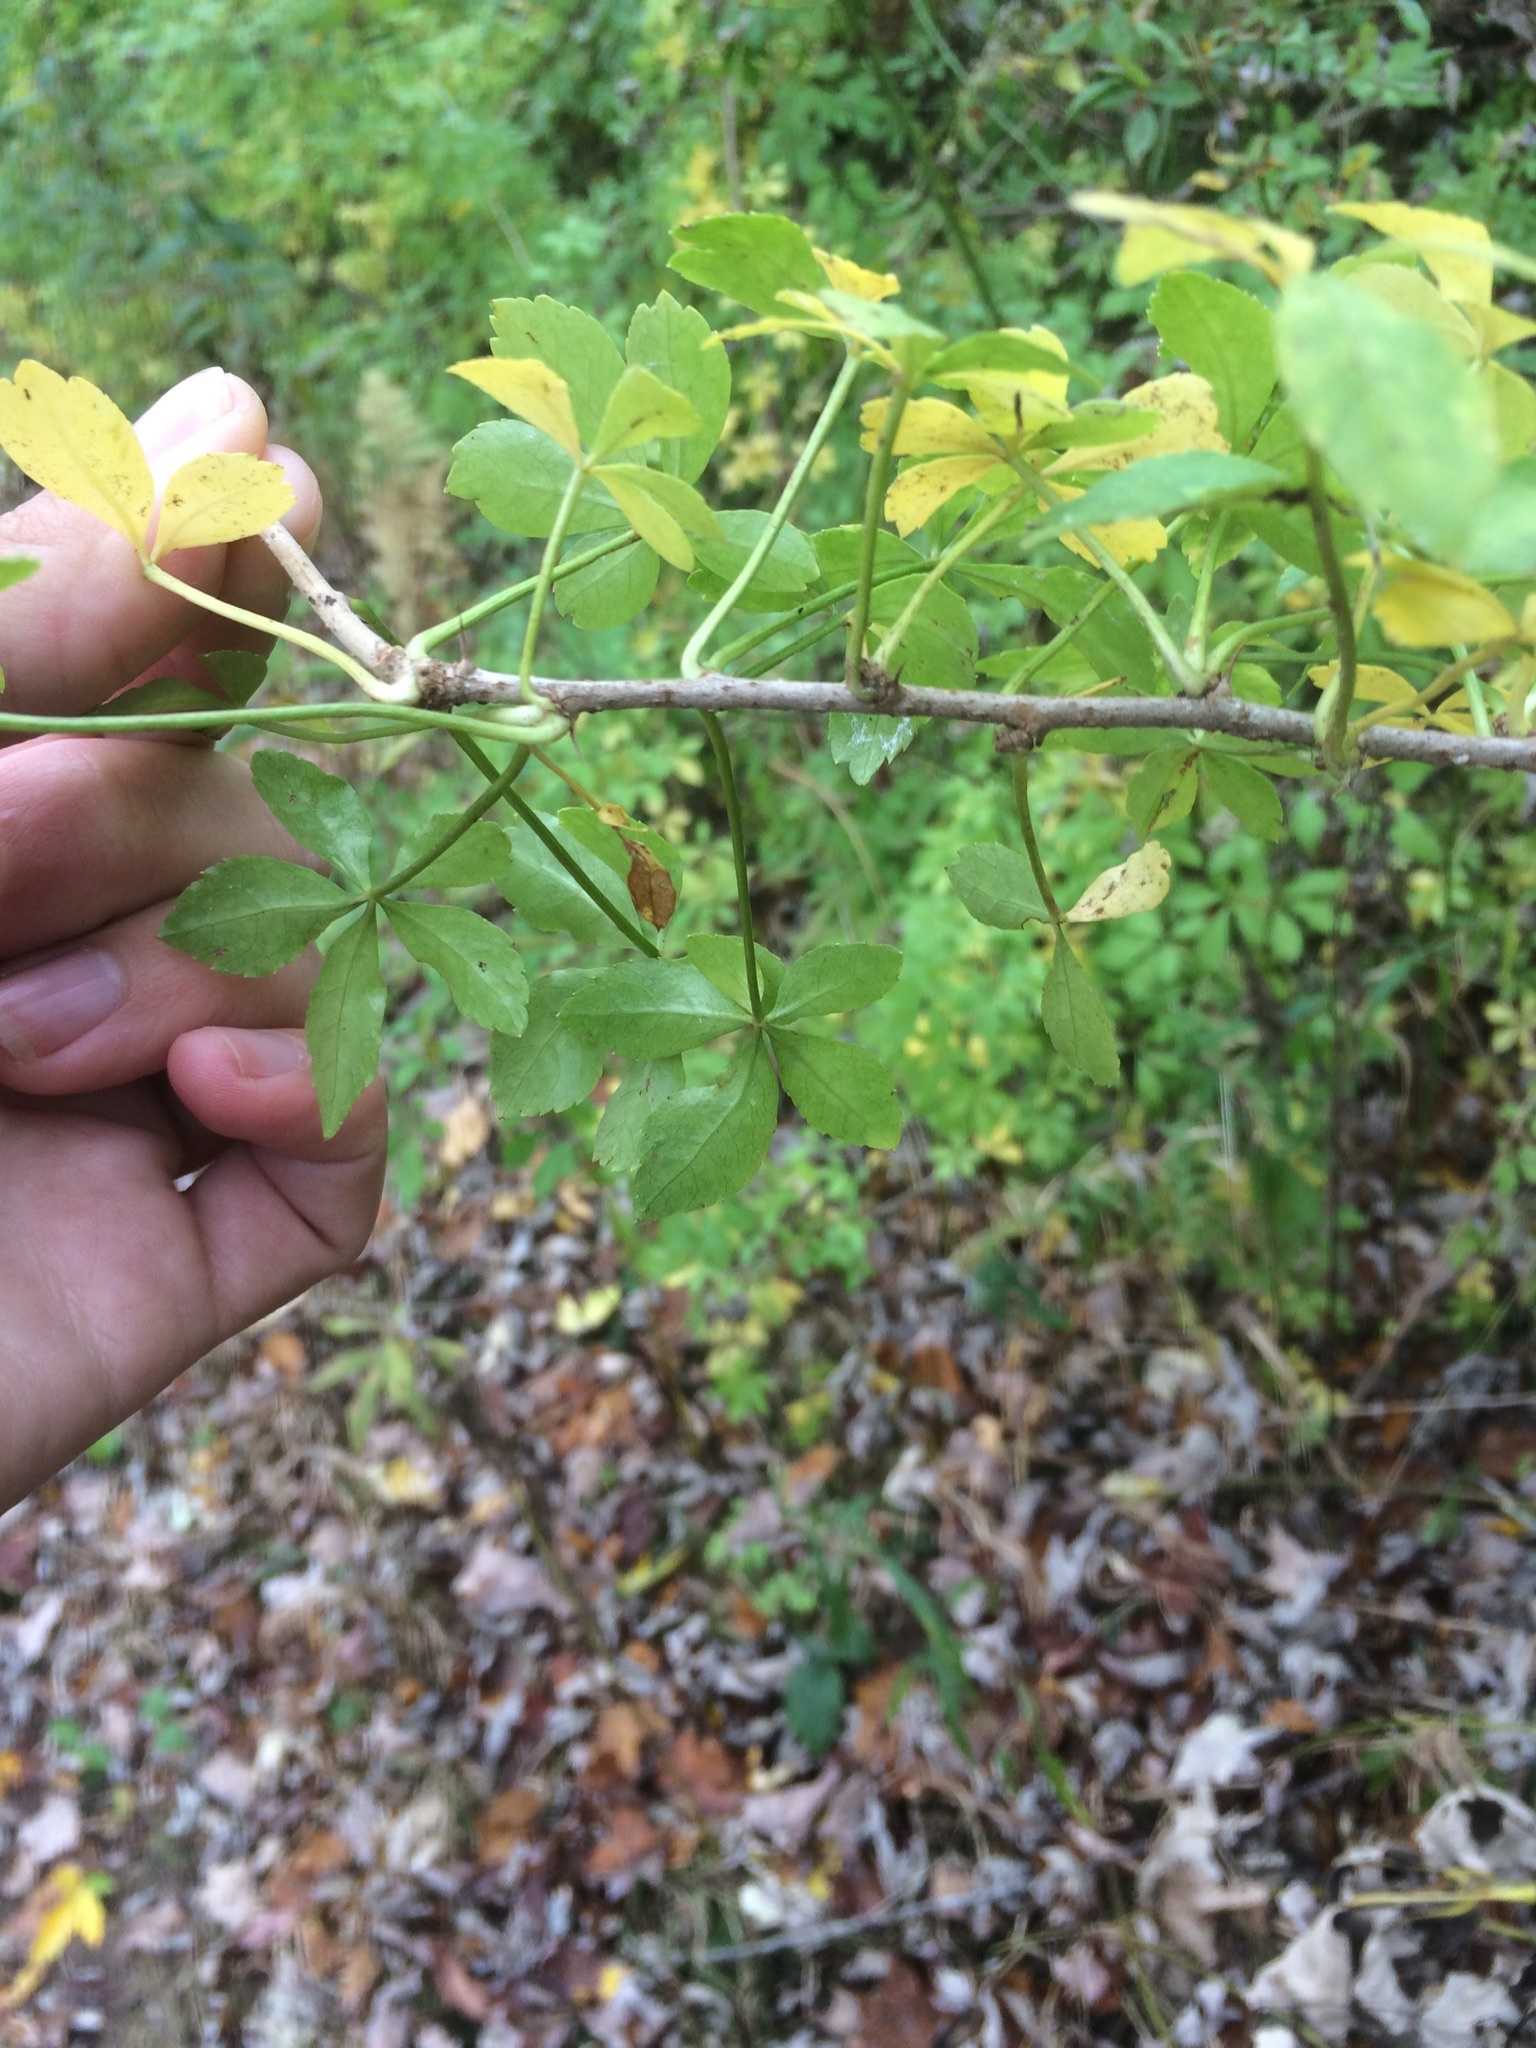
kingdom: Plantae
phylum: Tracheophyta
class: Magnoliopsida
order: Apiales
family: Araliaceae
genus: Eleutherococcus
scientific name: Eleutherococcus sieboldianus
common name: Ginseng
